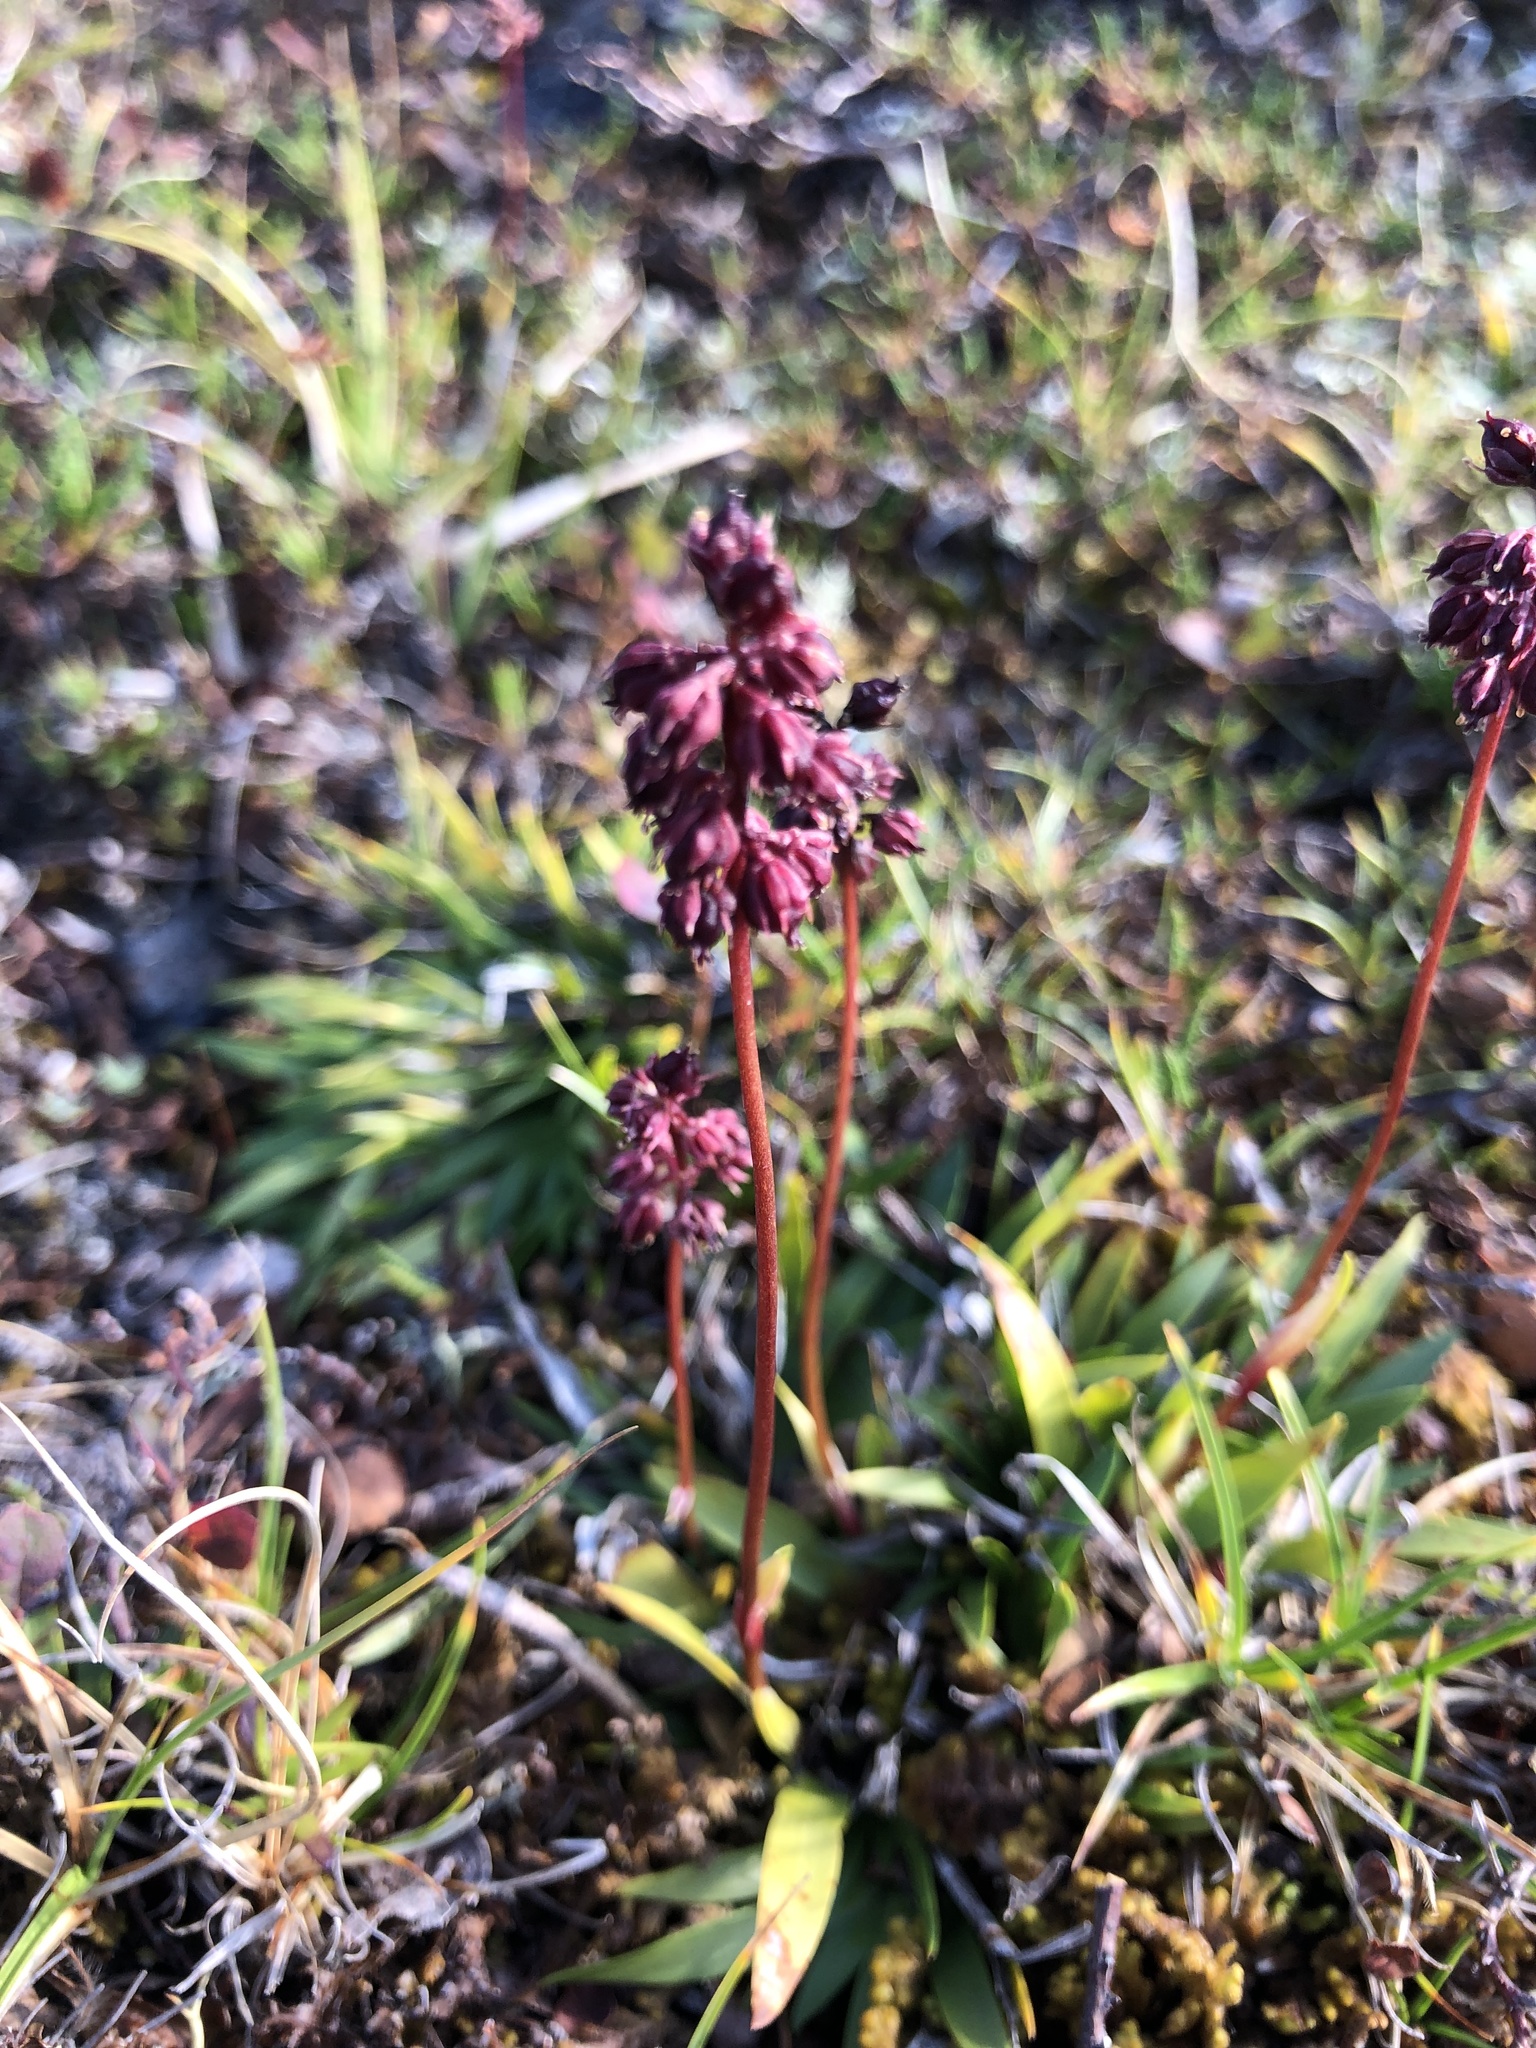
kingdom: Plantae
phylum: Tracheophyta
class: Liliopsida
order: Alismatales
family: Tofieldiaceae
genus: Tofieldia
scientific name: Tofieldia coccinea
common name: Northern false asphodel
